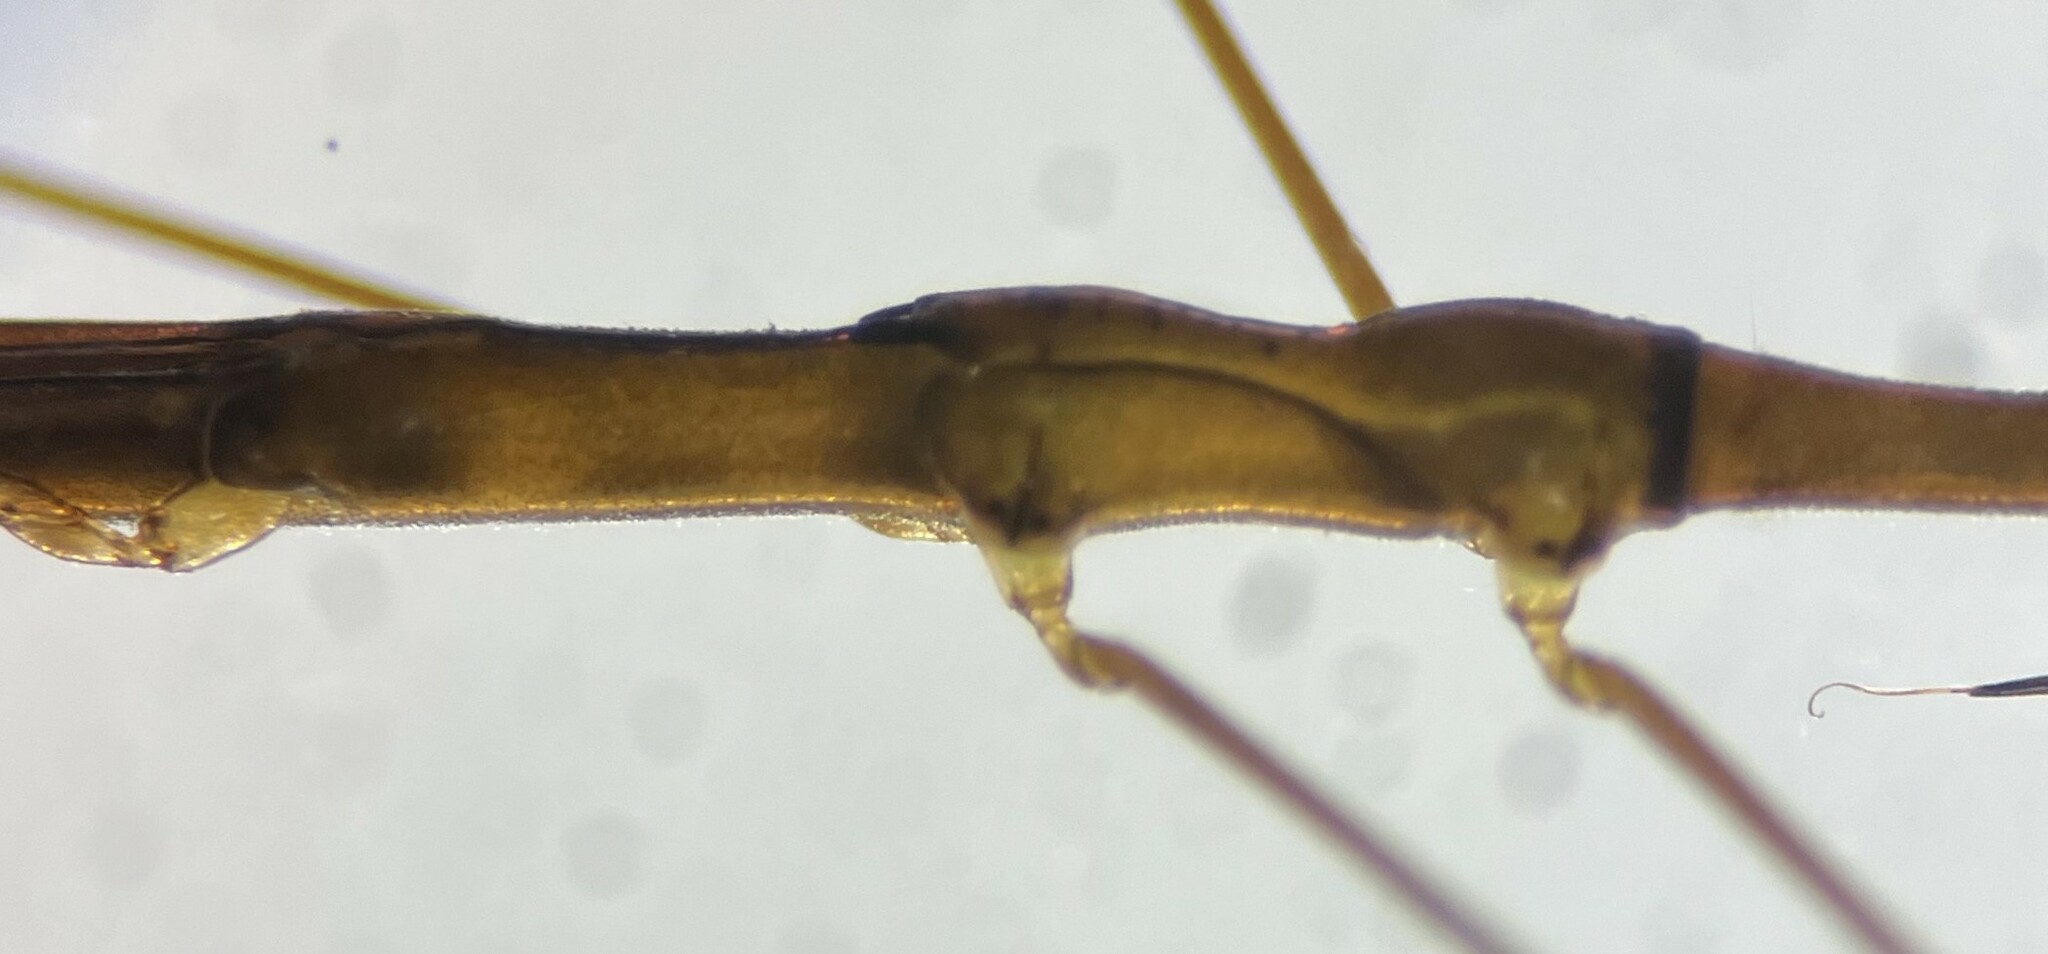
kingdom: Animalia
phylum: Arthropoda
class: Insecta
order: Hemiptera
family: Hydrometridae
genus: Hydrometra
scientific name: Hydrometra australis
